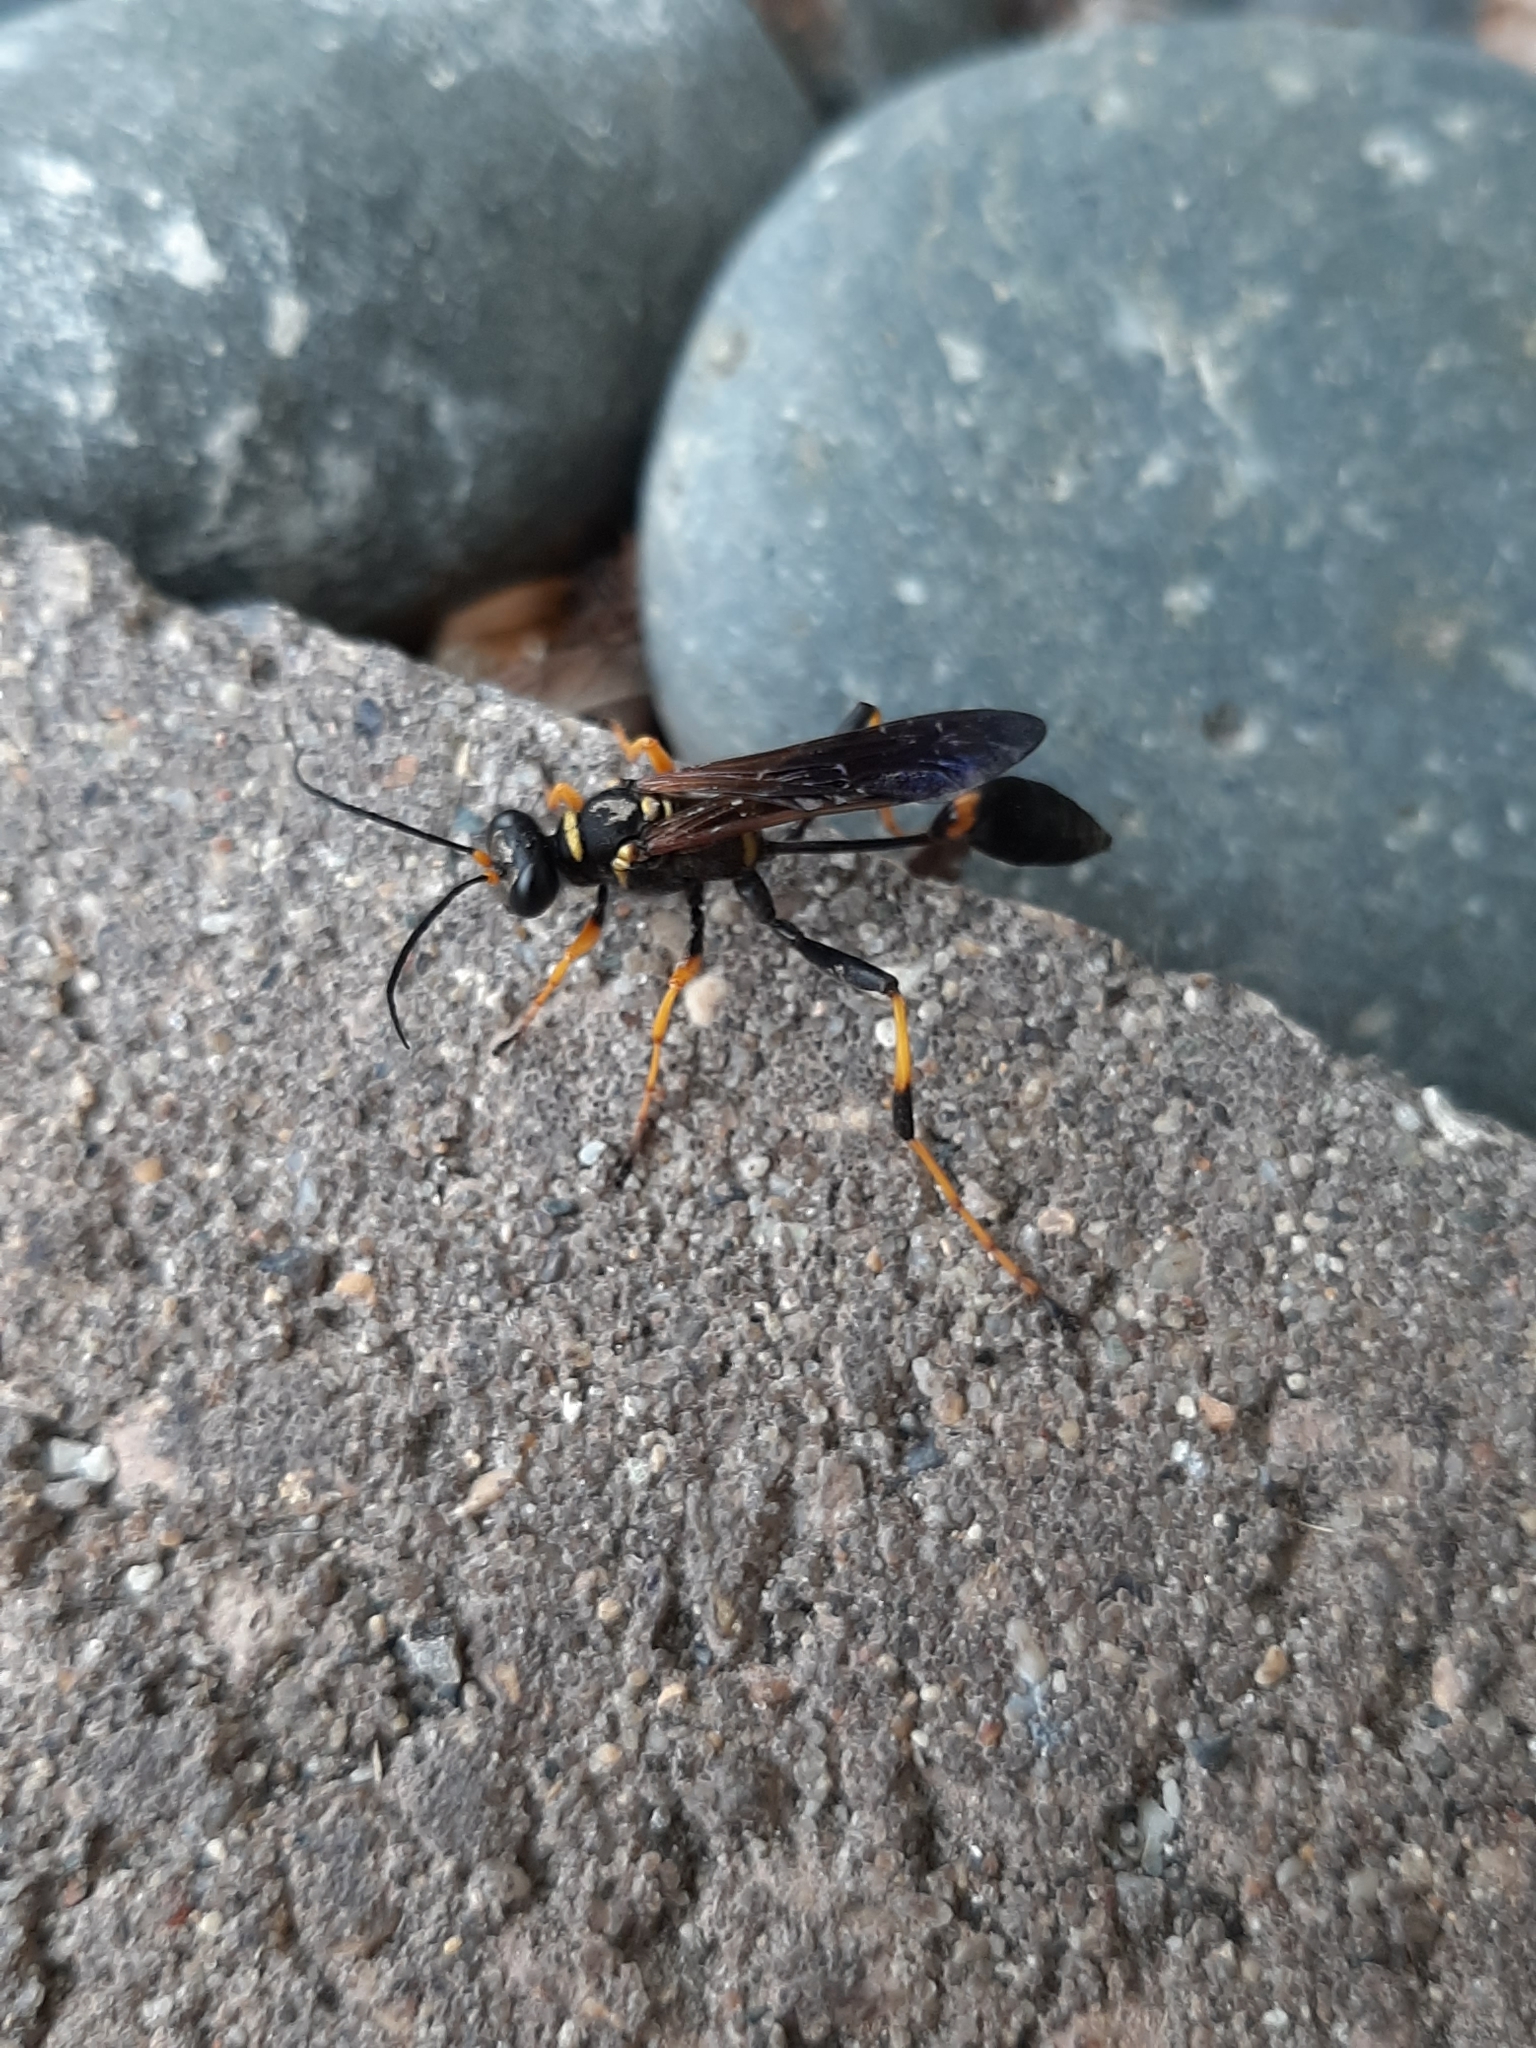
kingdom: Animalia
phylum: Arthropoda
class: Insecta
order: Hymenoptera
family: Sphecidae
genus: Sceliphron
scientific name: Sceliphron caementarium
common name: Mud dauber
